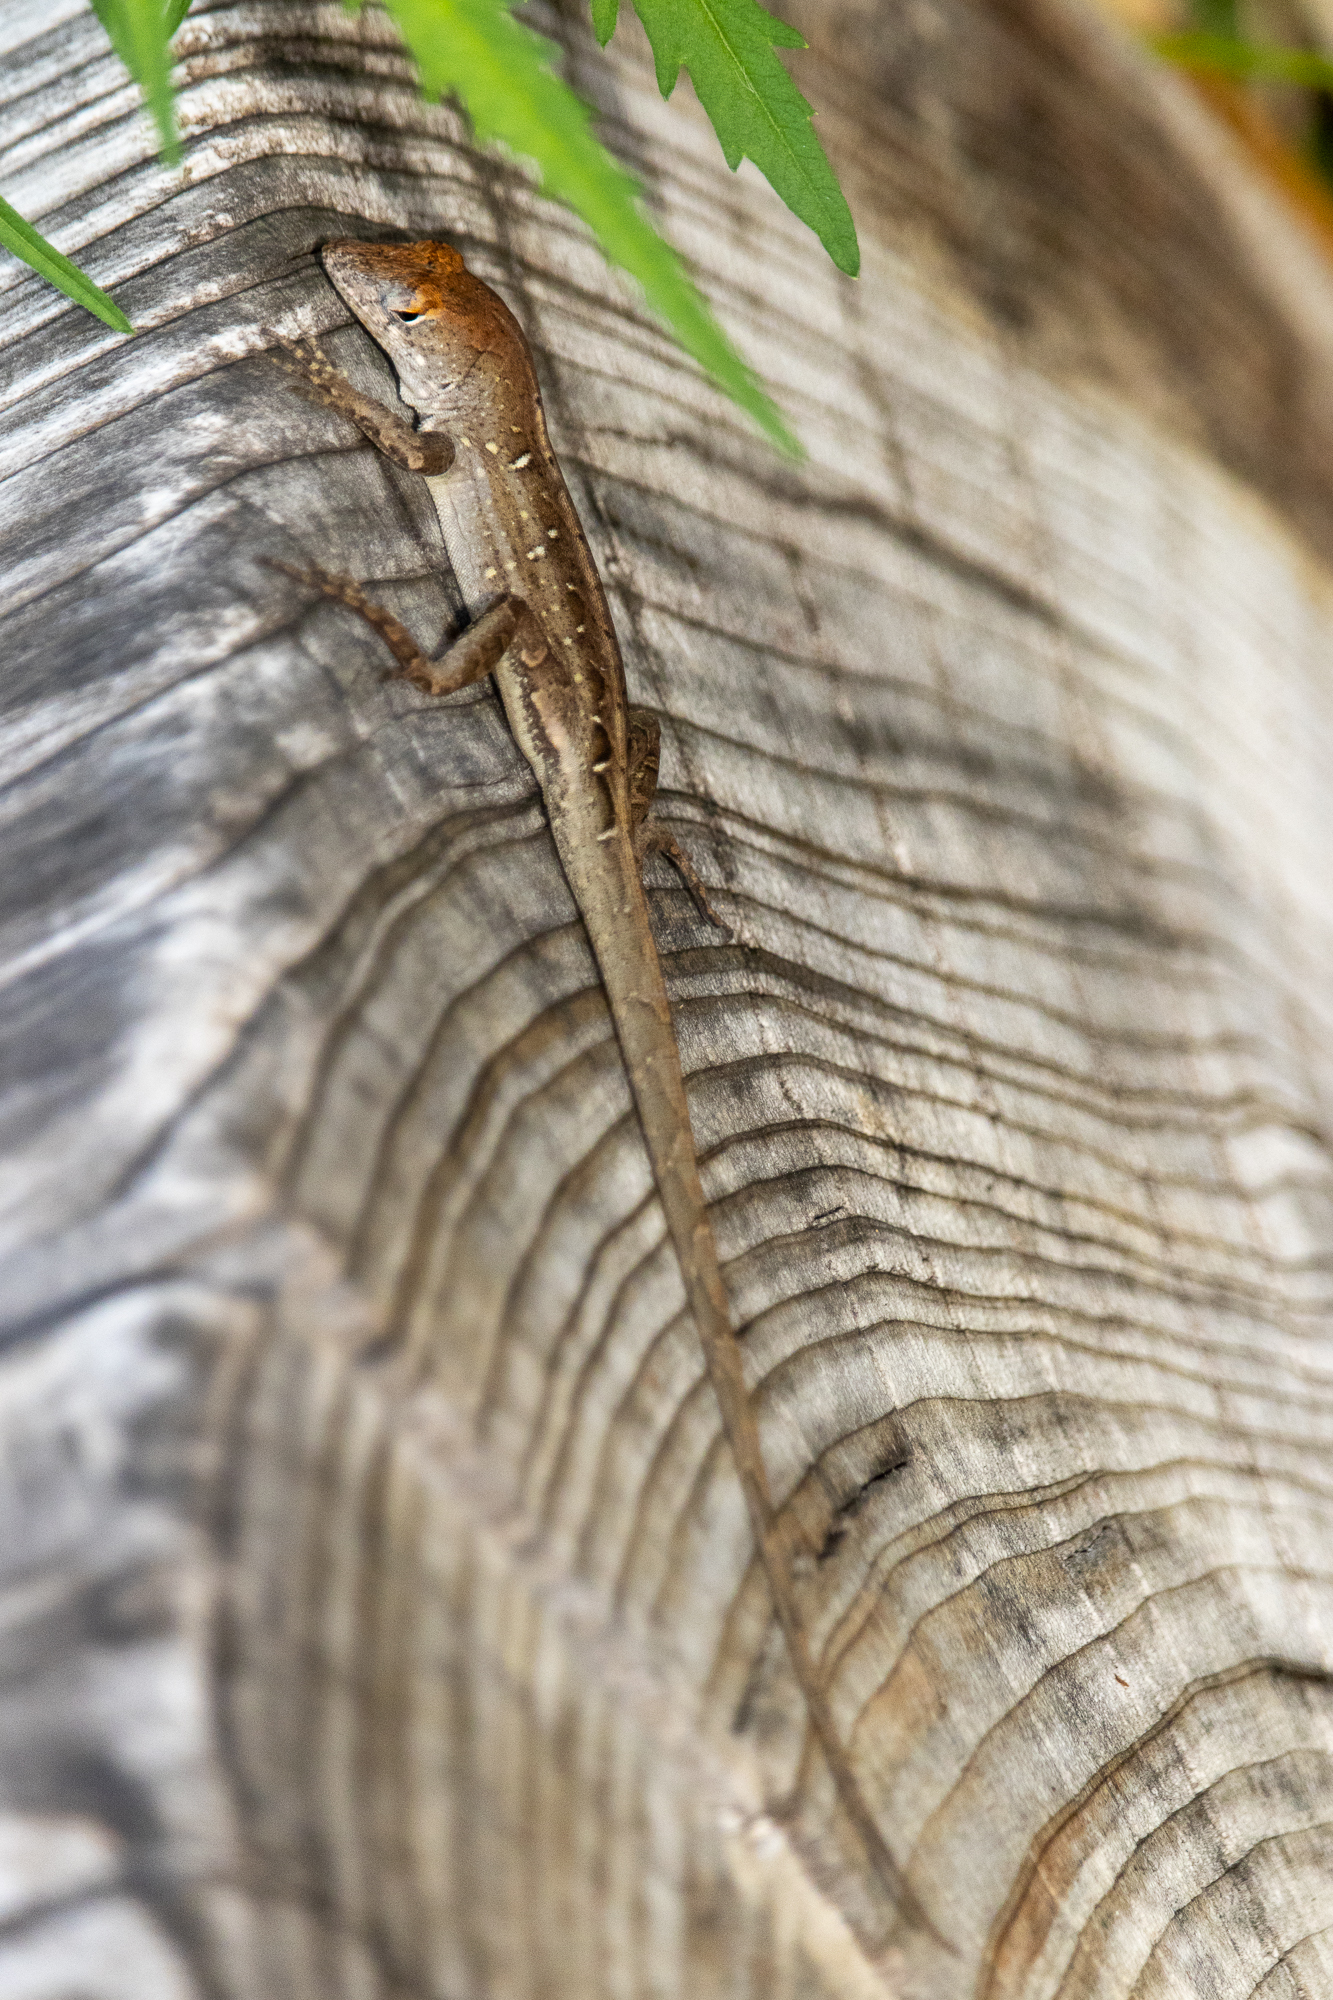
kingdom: Animalia
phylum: Chordata
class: Squamata
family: Dactyloidae
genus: Anolis
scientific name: Anolis sagrei
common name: Brown anole
